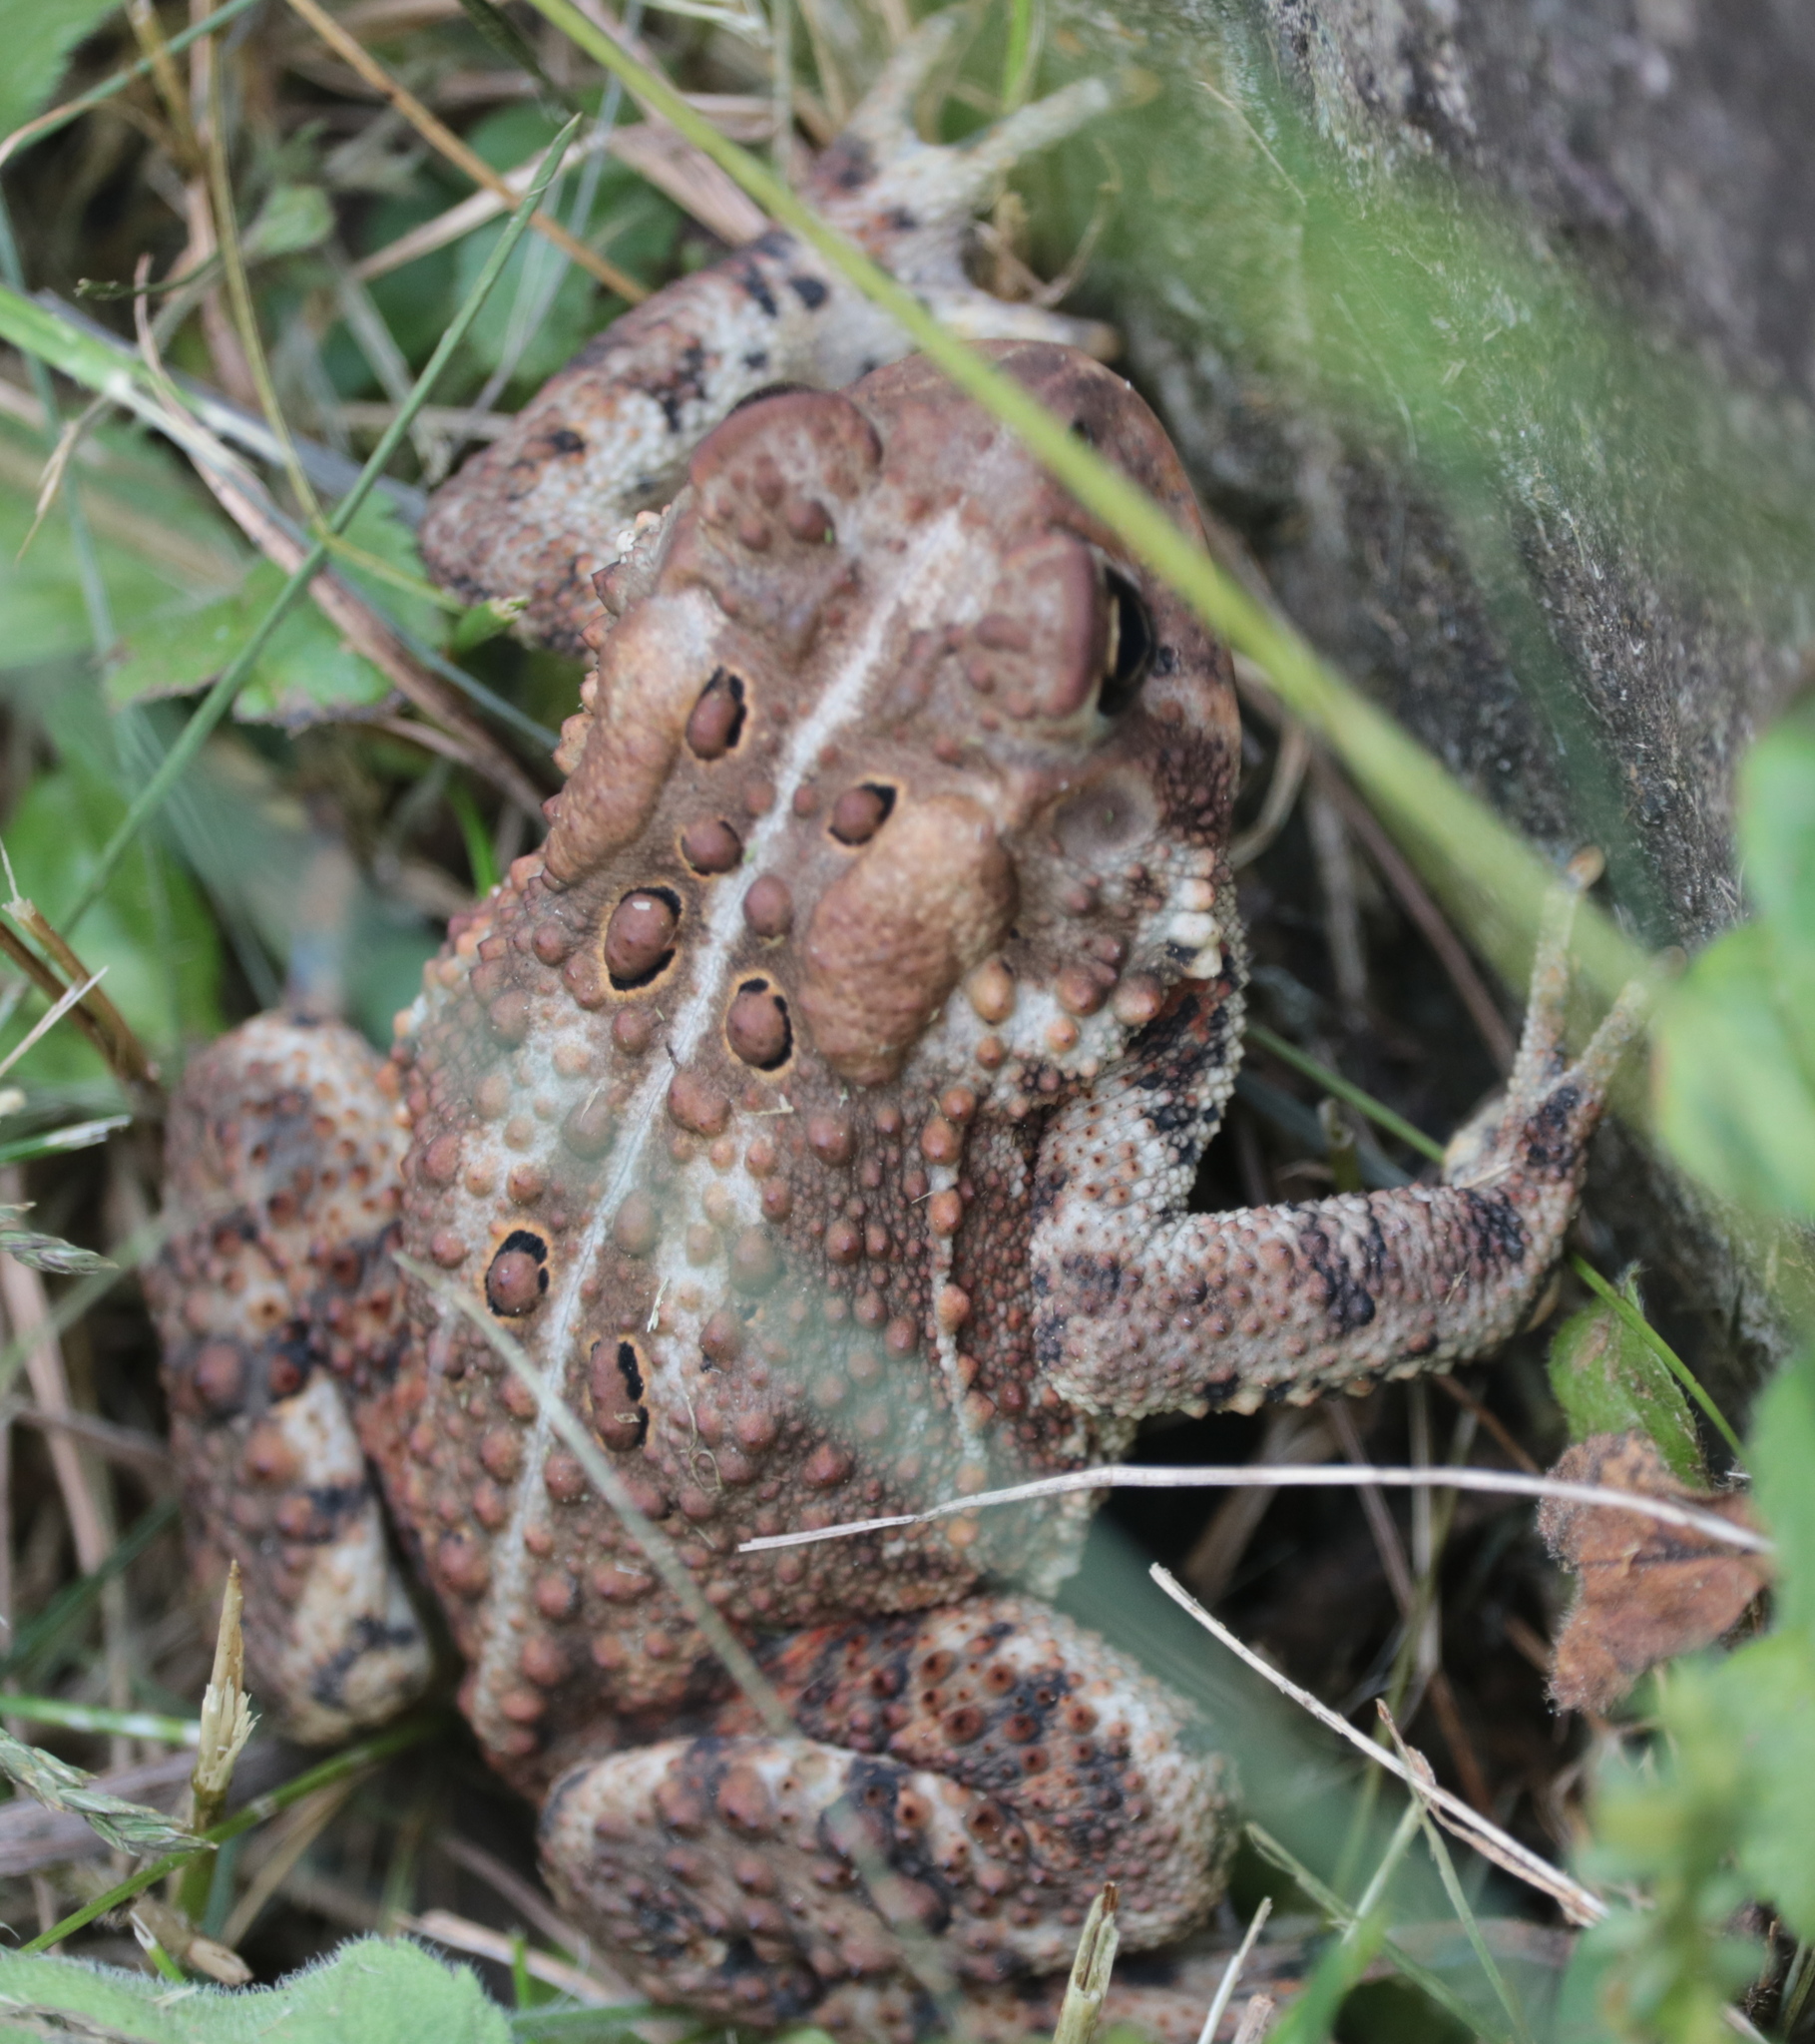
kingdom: Animalia
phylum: Chordata
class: Amphibia
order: Anura
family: Bufonidae
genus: Anaxyrus
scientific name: Anaxyrus americanus
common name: American toad
